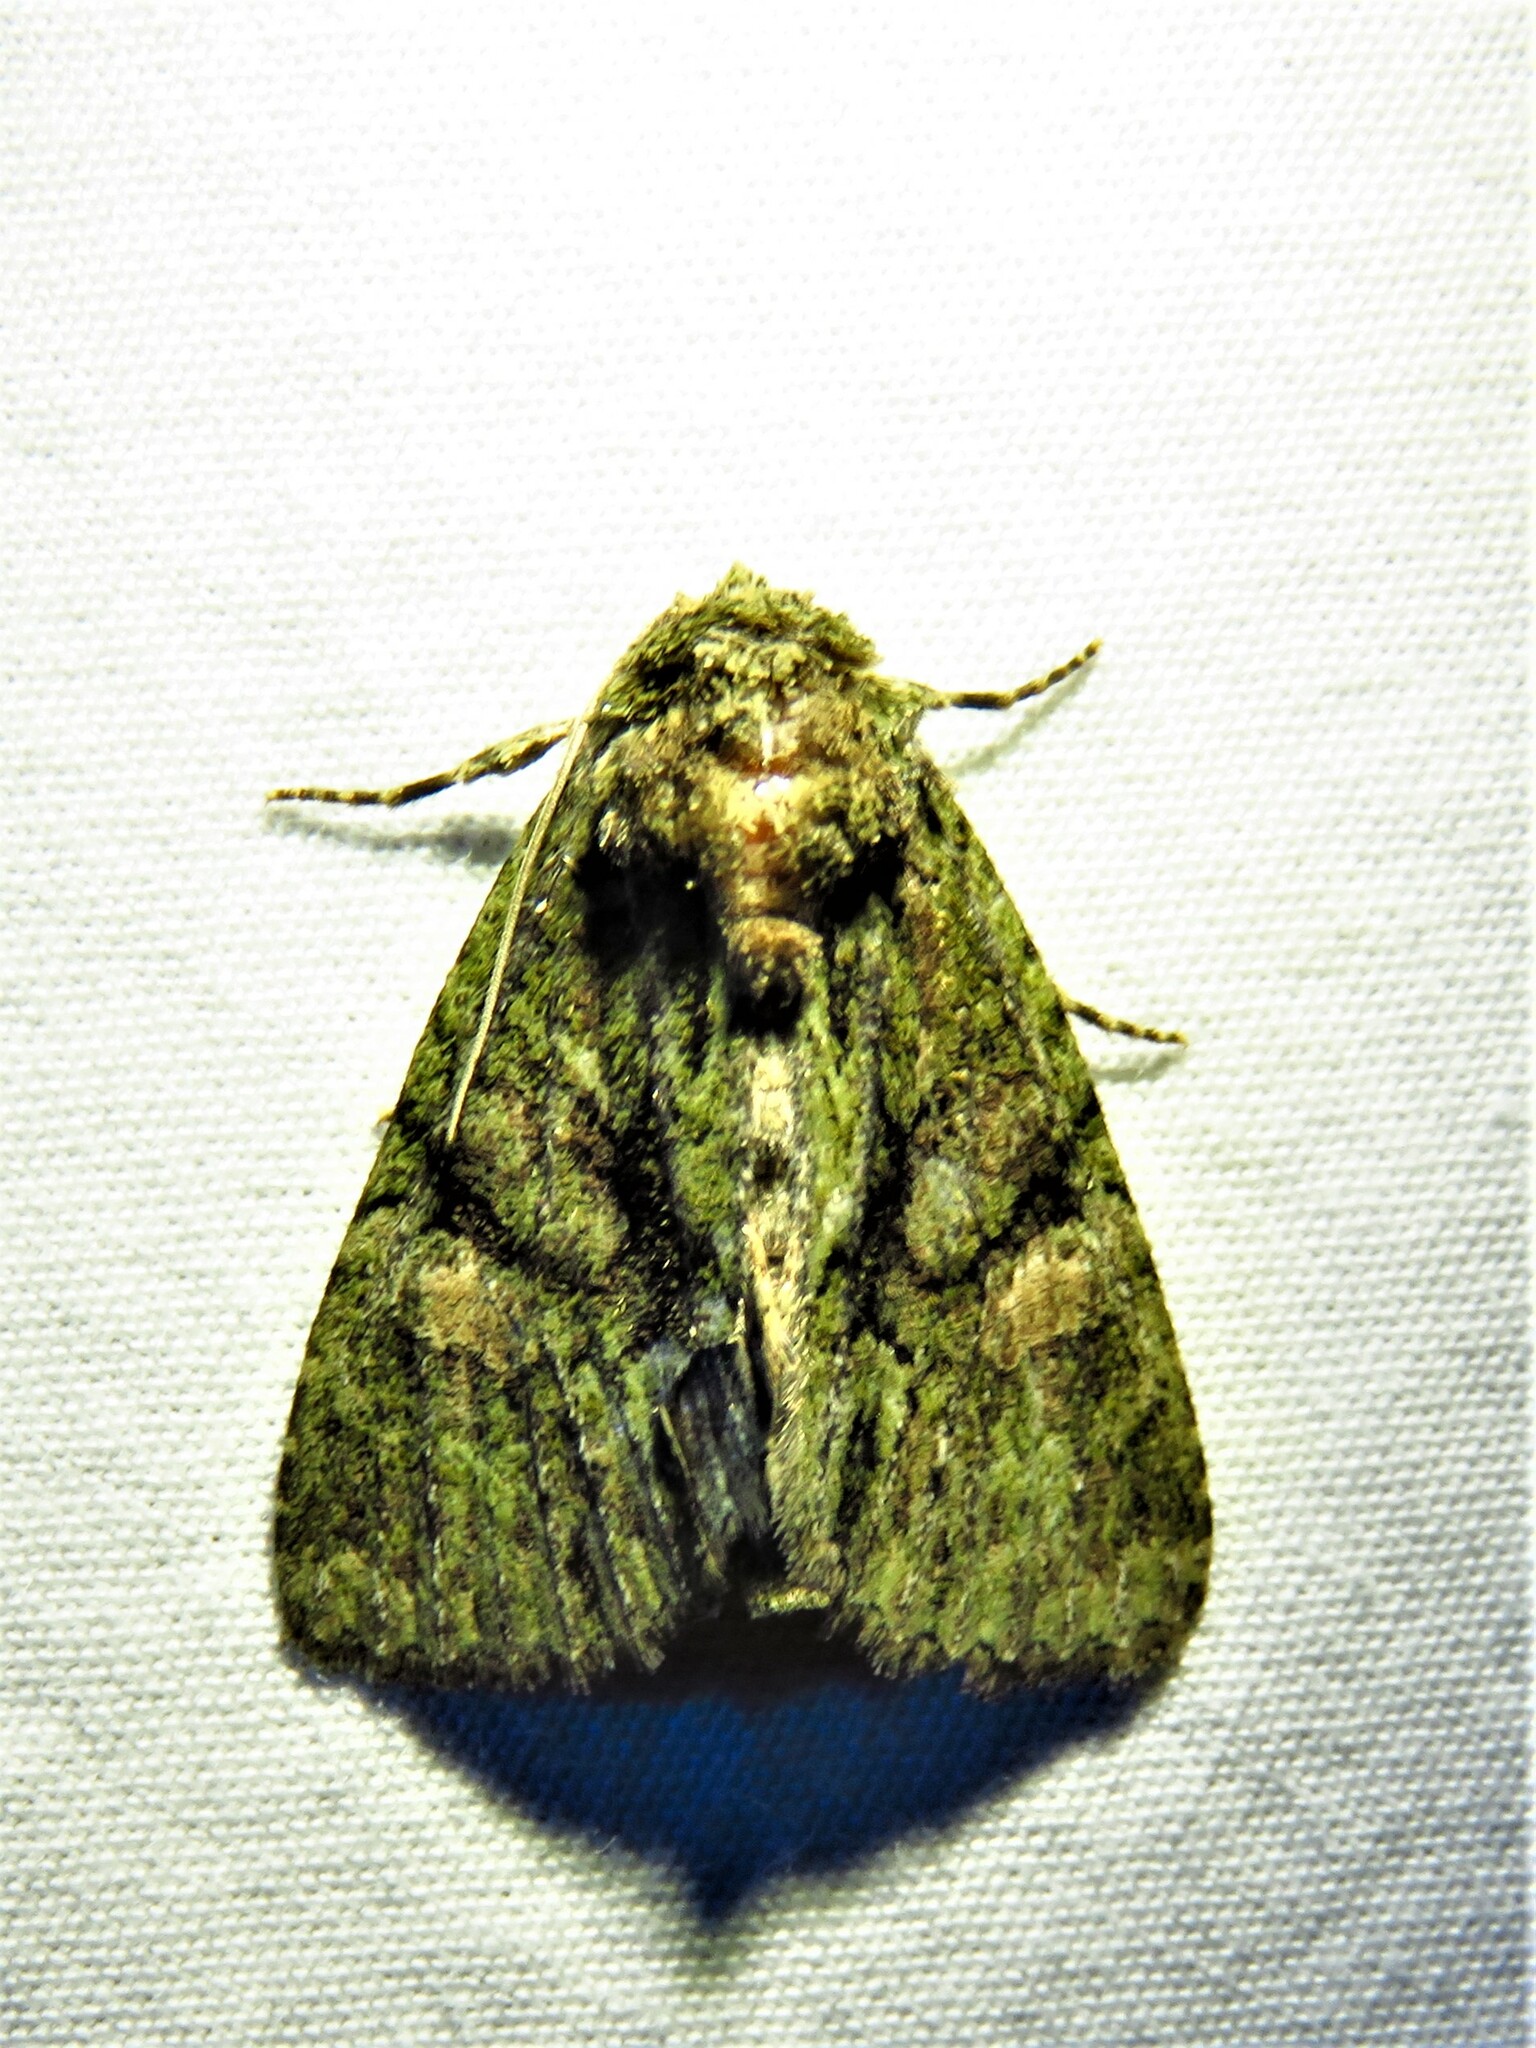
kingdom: Animalia
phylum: Arthropoda
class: Insecta
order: Lepidoptera
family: Noctuidae
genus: Phosphila
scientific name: Phosphila miselioides
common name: Spotted phosphila moth
